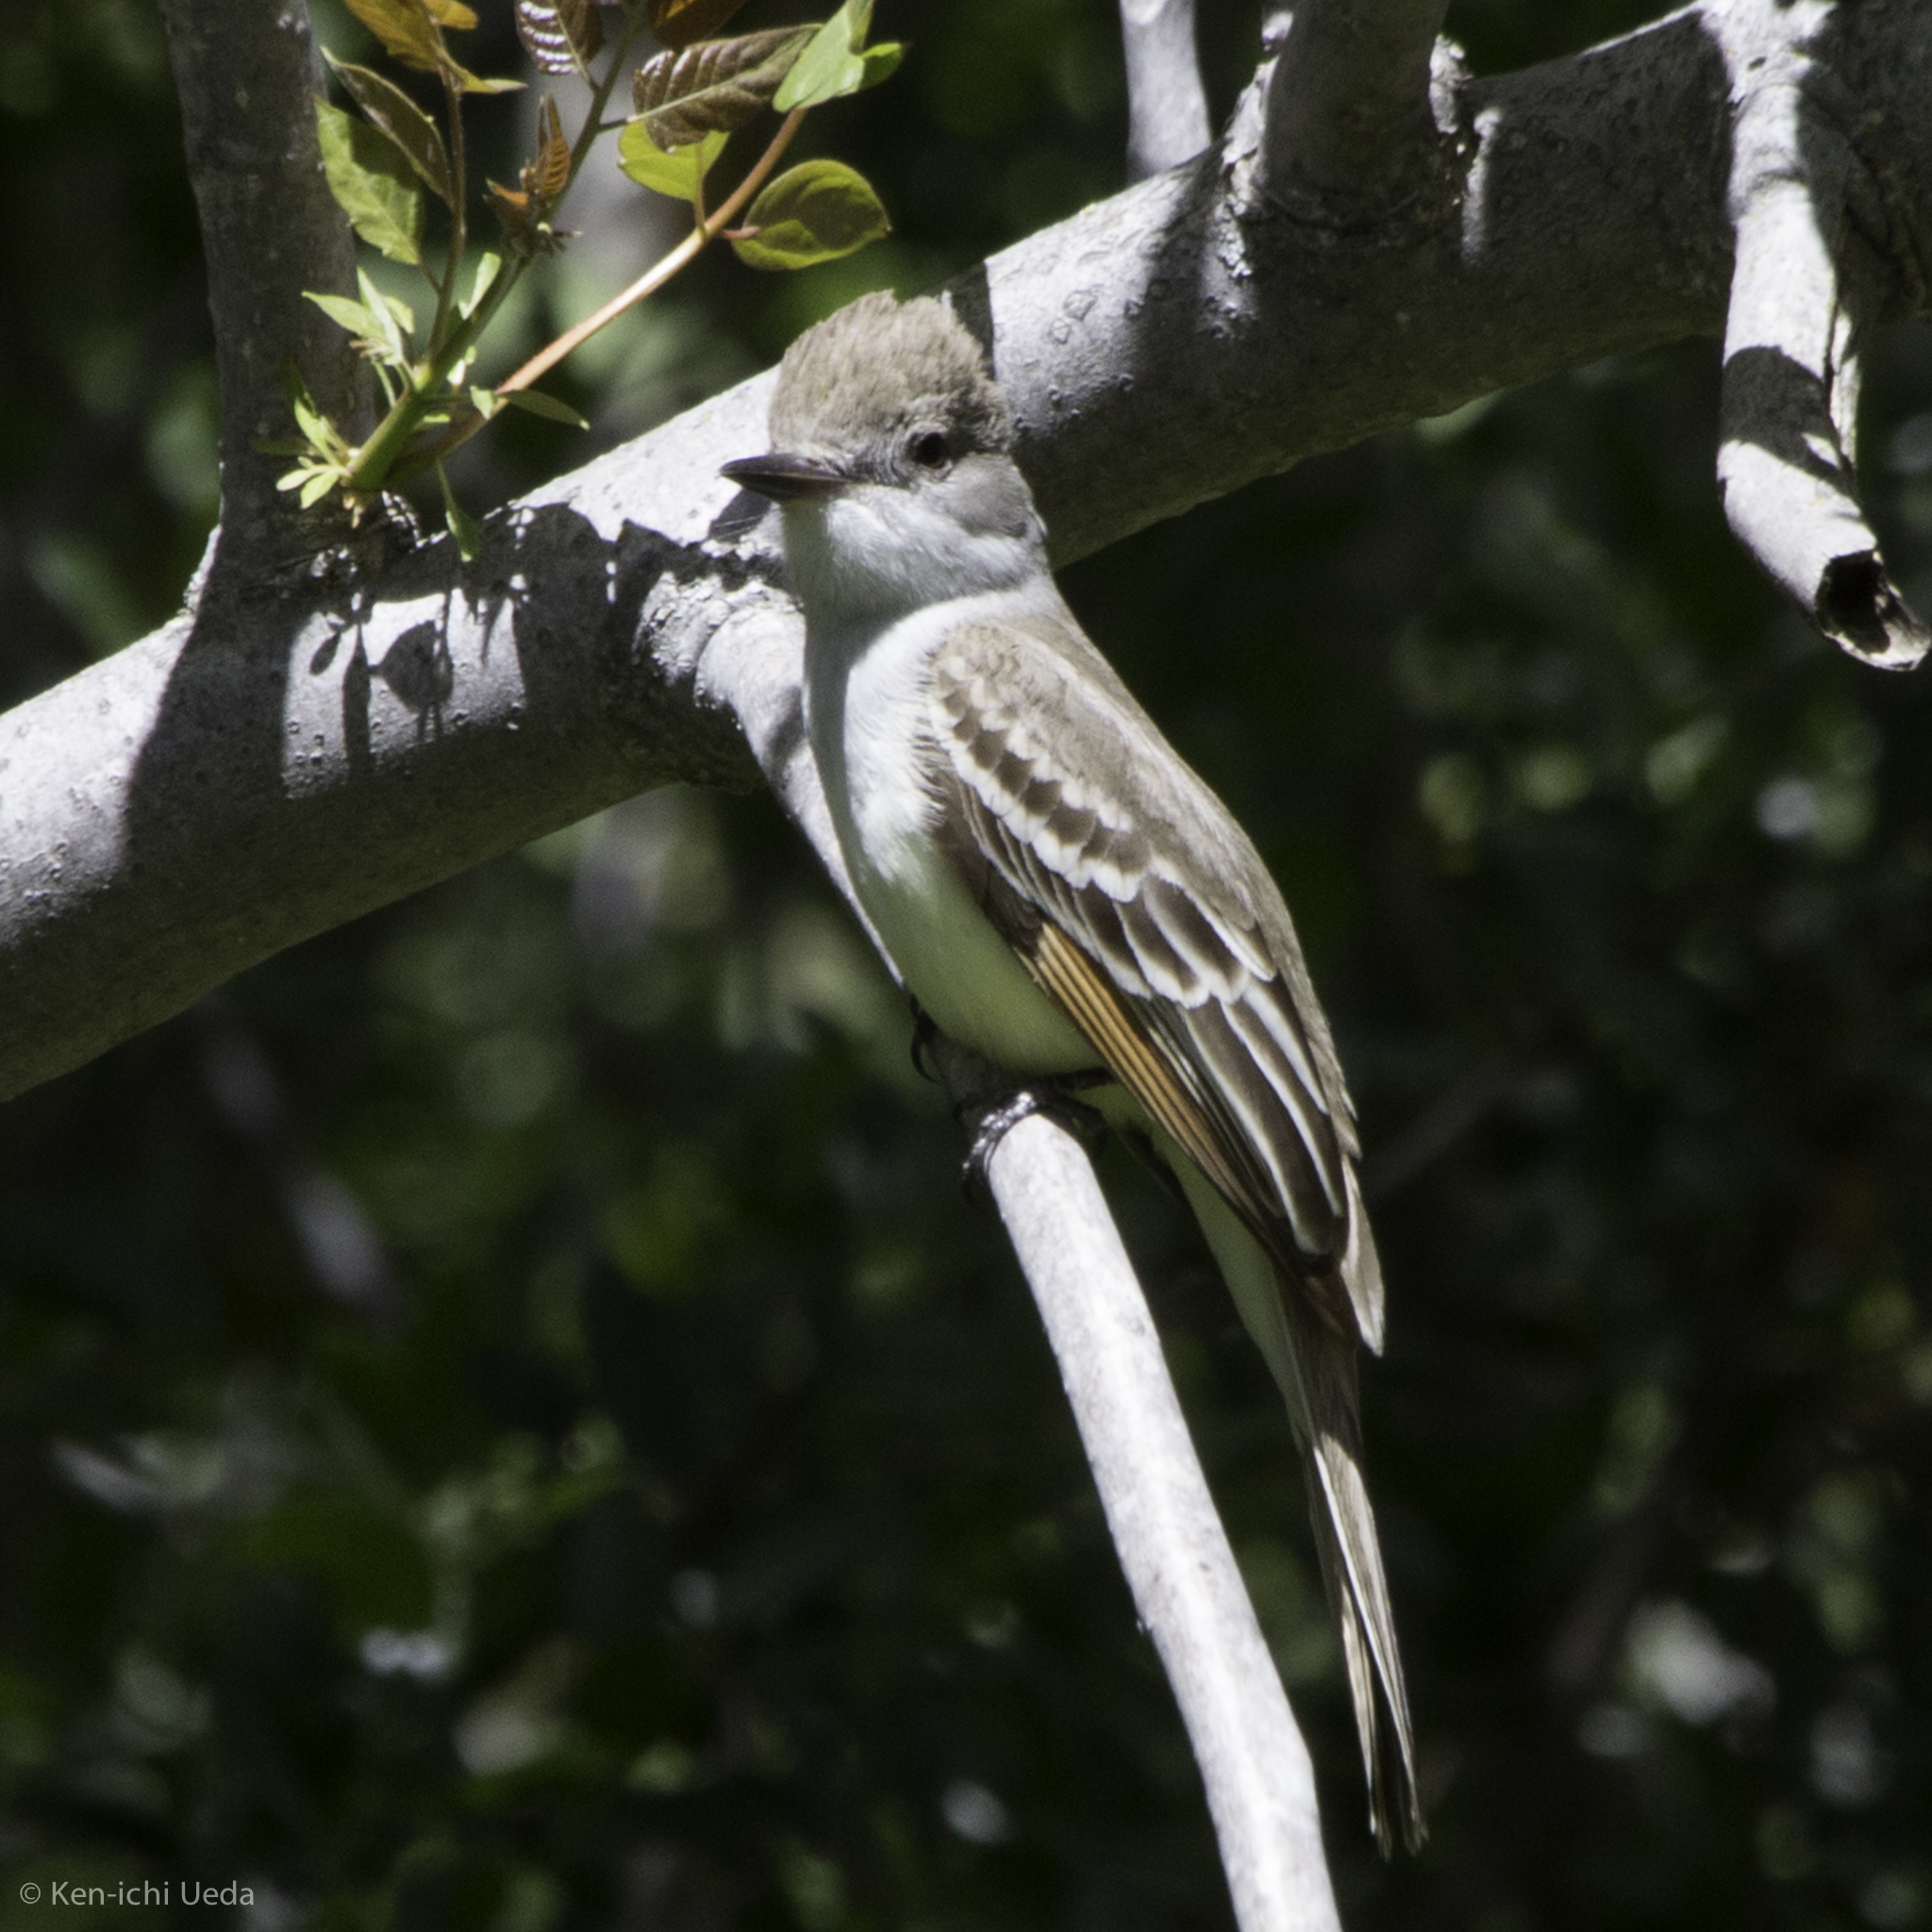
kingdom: Animalia
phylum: Chordata
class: Aves
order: Passeriformes
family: Tyrannidae
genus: Myiarchus
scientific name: Myiarchus cinerascens
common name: Ash-throated flycatcher
